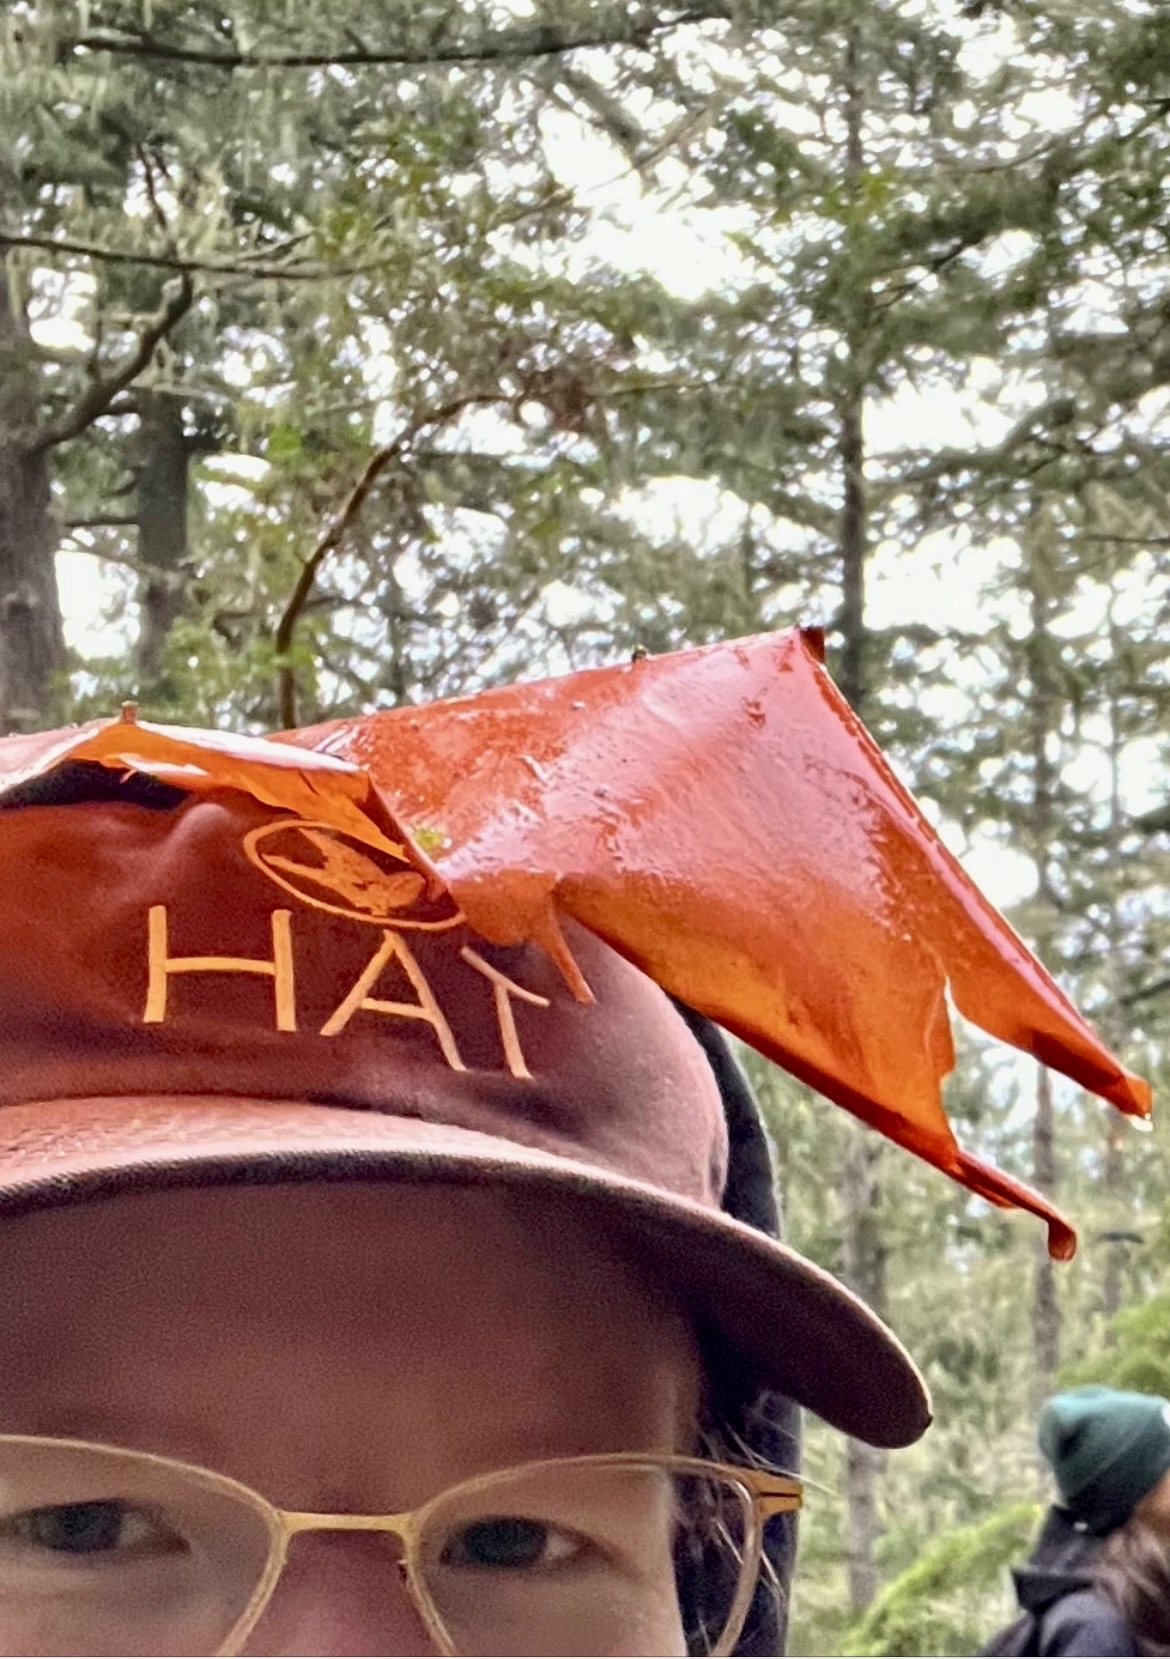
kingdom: Plantae
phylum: Tracheophyta
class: Magnoliopsida
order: Ericales
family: Ericaceae
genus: Arbutus
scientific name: Arbutus menziesii
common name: Pacific madrone
